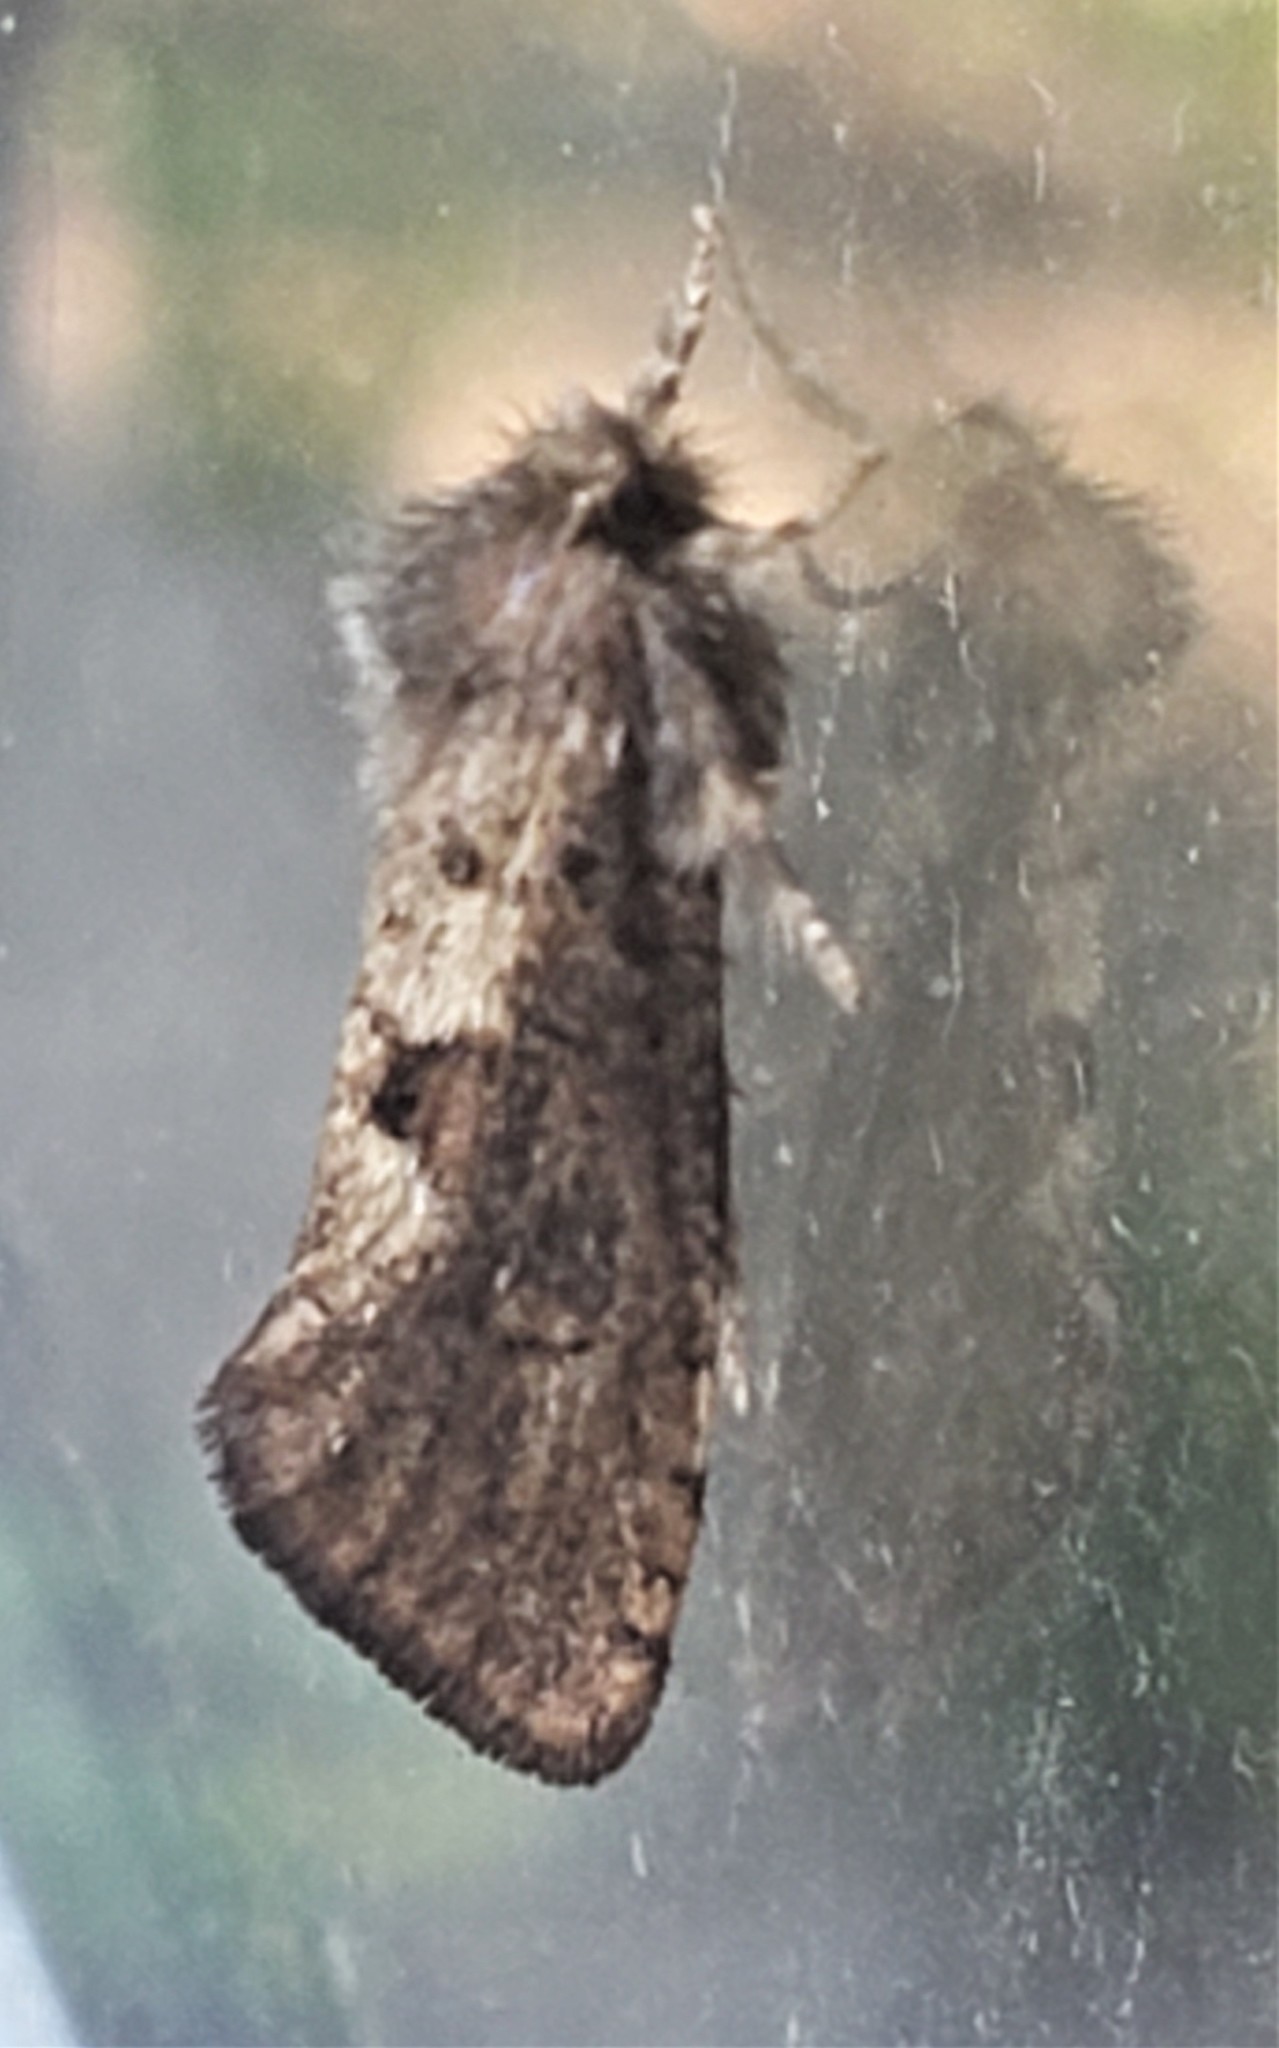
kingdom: Animalia
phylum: Arthropoda
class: Insecta
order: Lepidoptera
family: Tineidae
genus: Acrolophus
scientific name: Acrolophus mora
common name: Dark acrolophus
